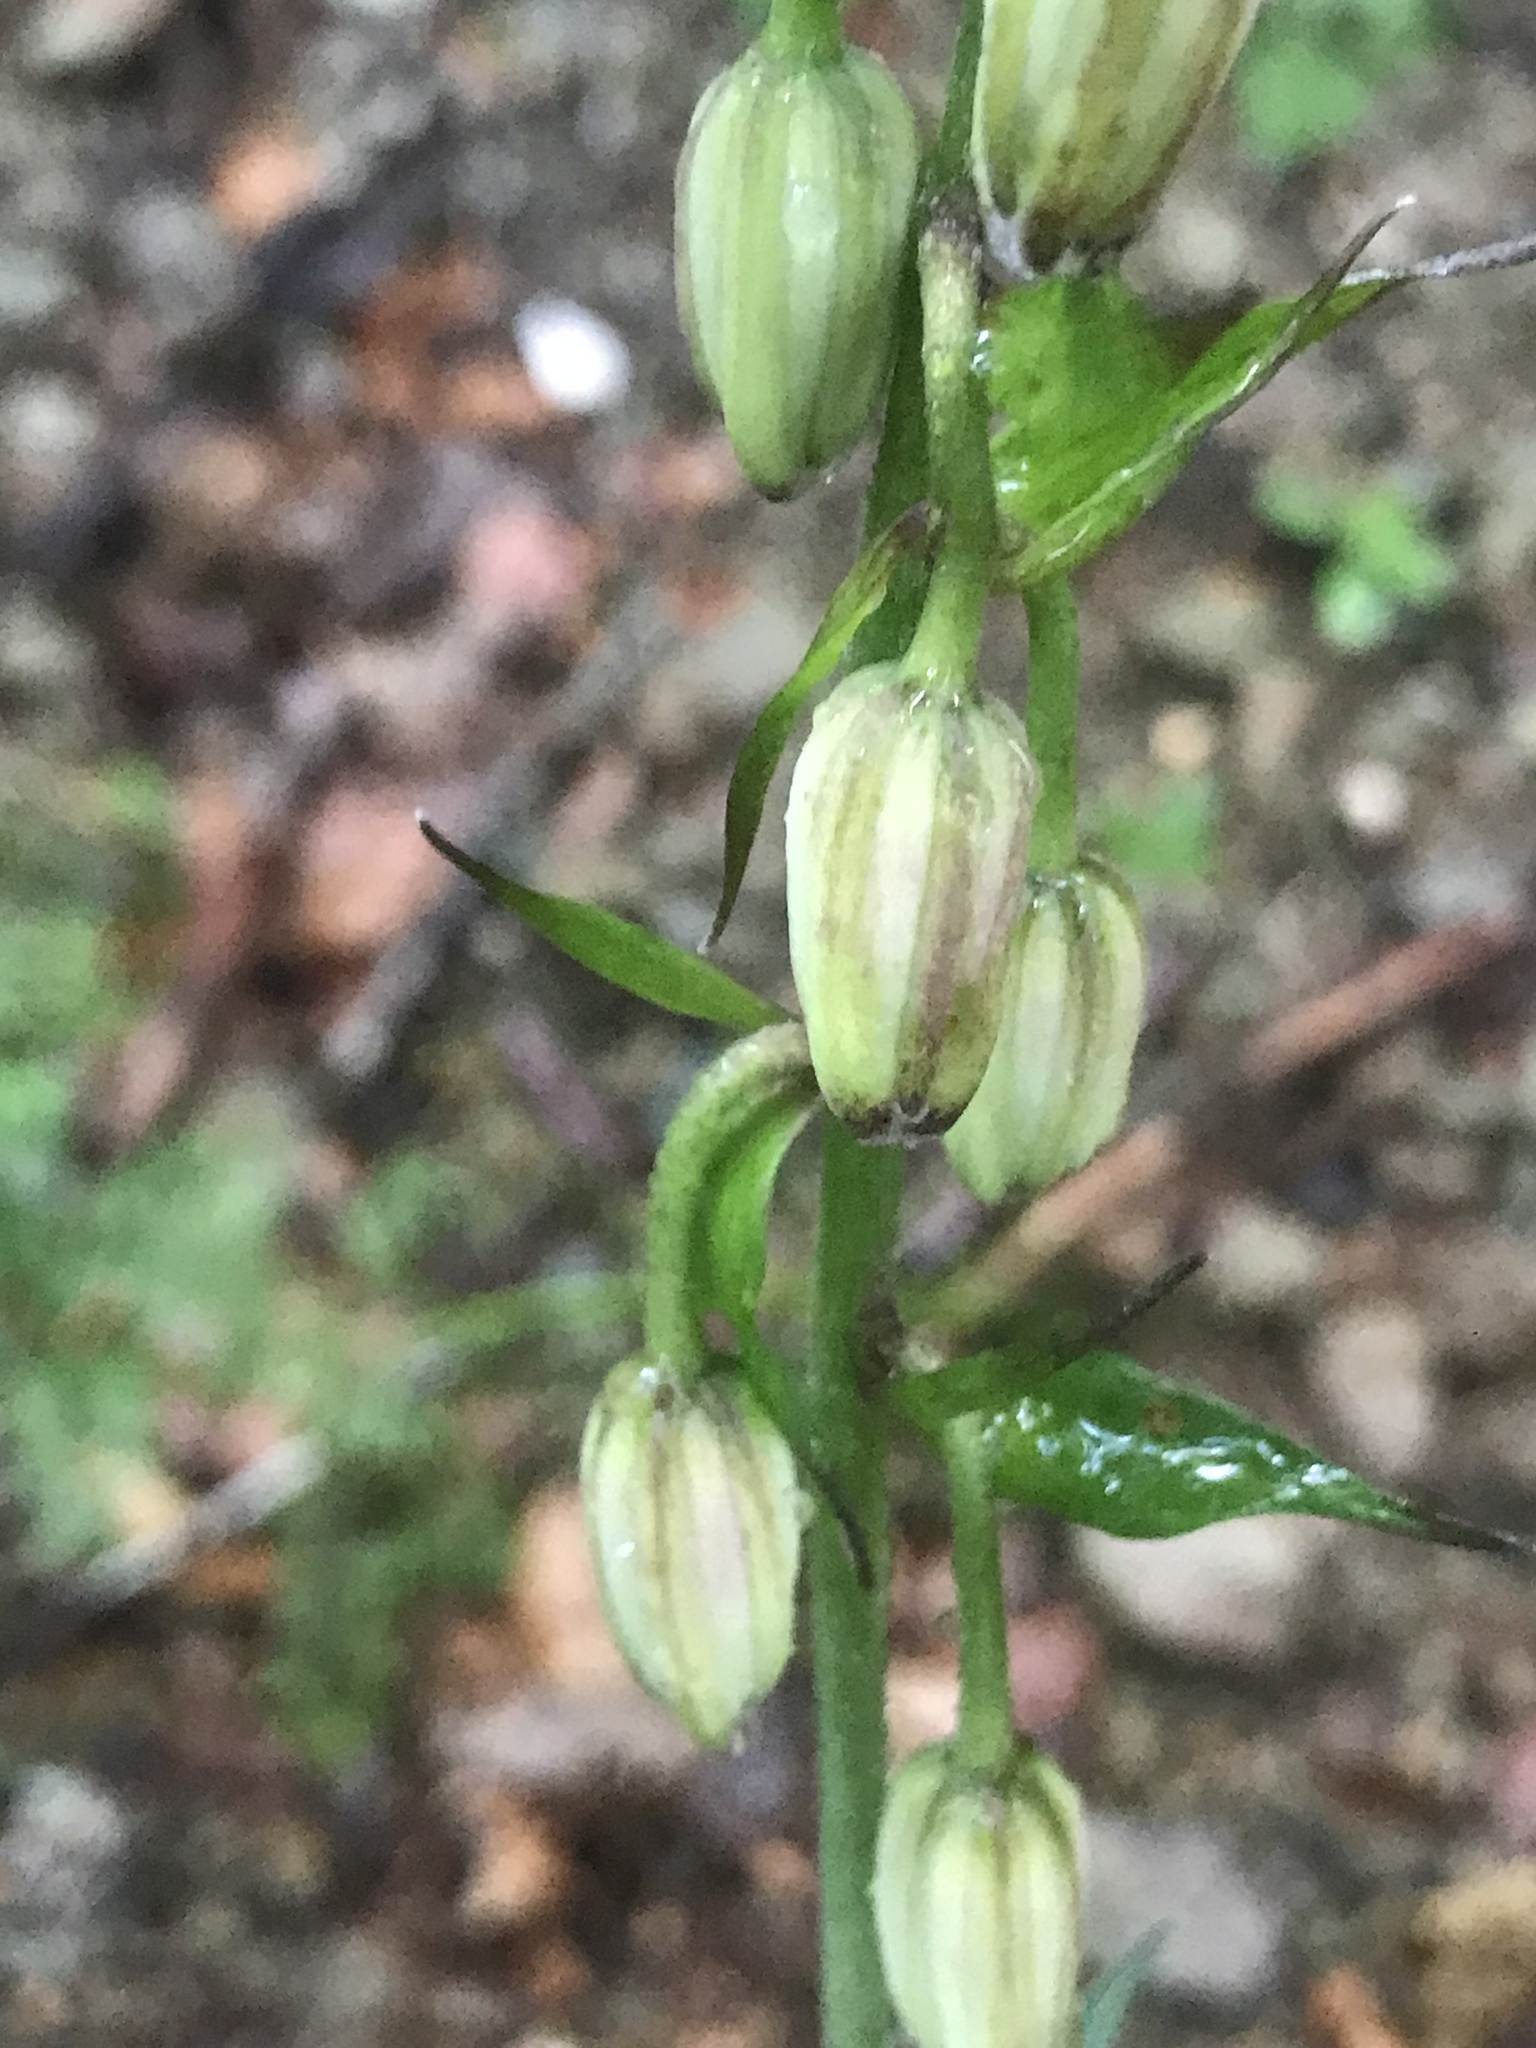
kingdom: Plantae
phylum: Tracheophyta
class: Liliopsida
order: Liliales
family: Liliaceae
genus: Lilium
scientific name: Lilium martagon
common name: Martagon lily
